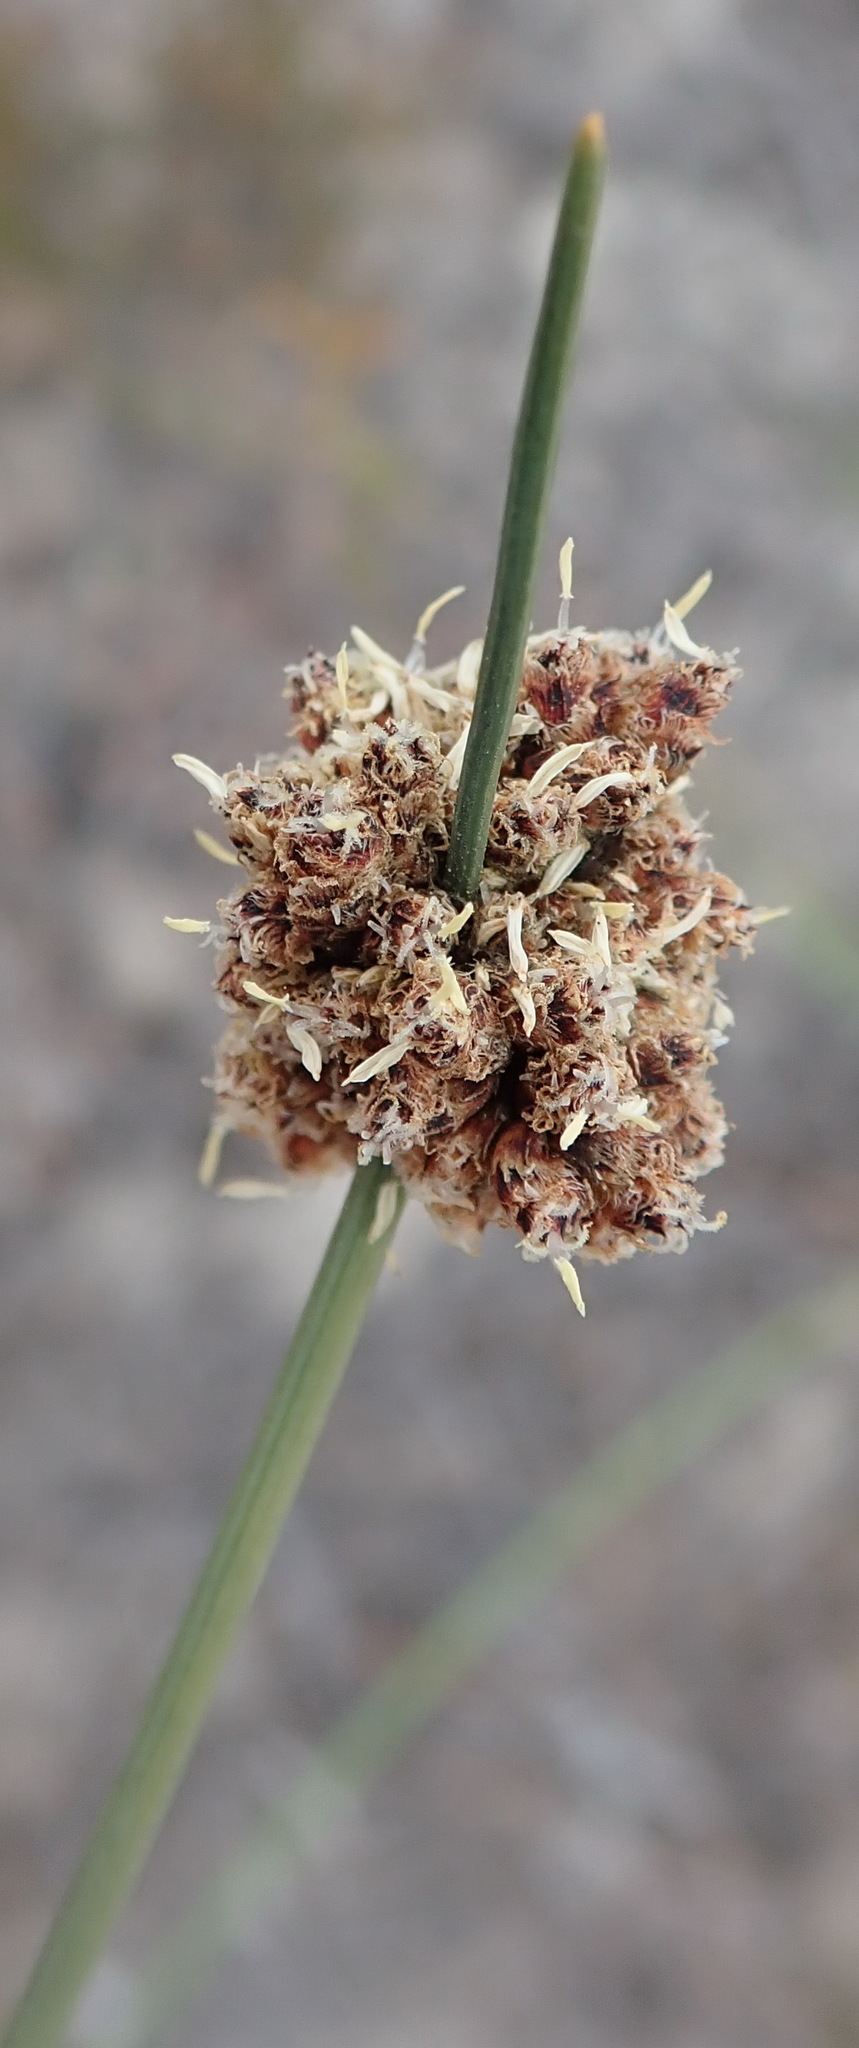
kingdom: Plantae
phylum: Tracheophyta
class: Liliopsida
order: Poales
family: Cyperaceae
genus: Ficinia
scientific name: Ficinia laciniata
